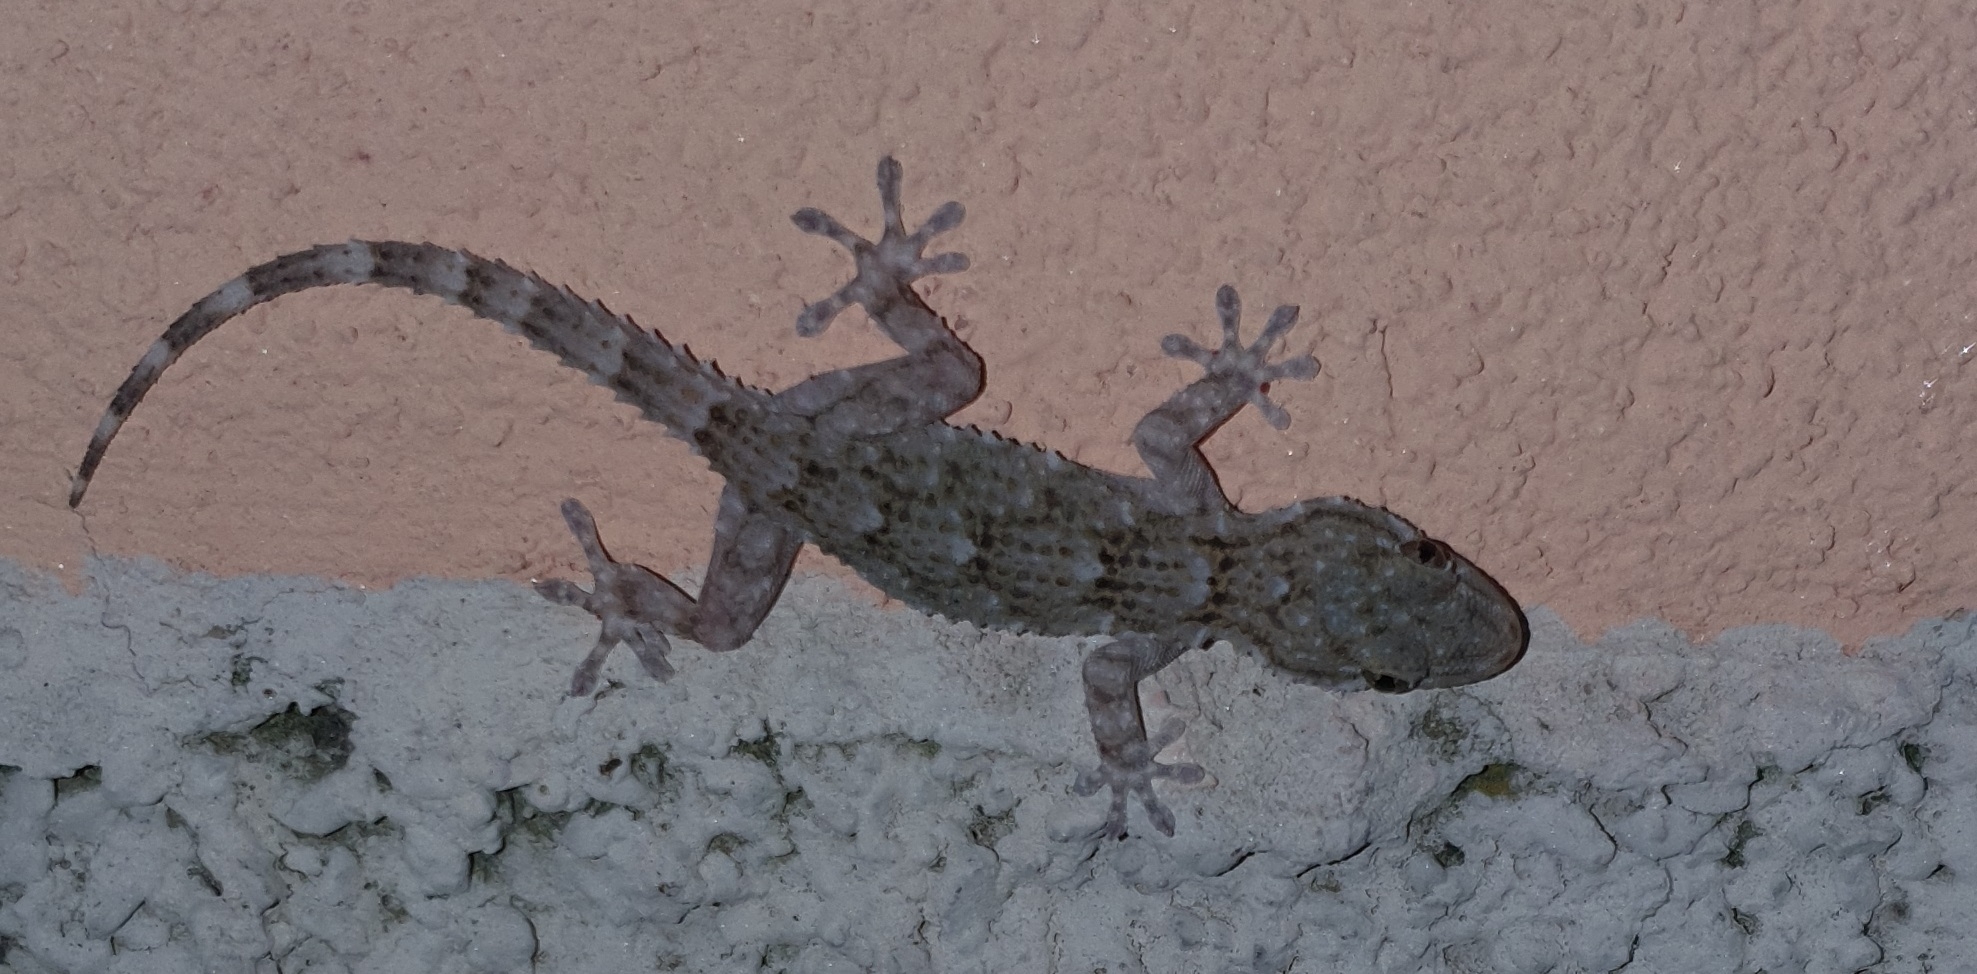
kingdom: Animalia
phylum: Chordata
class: Squamata
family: Phyllodactylidae
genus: Tarentola
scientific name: Tarentola mauritanica
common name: Moorish gecko
